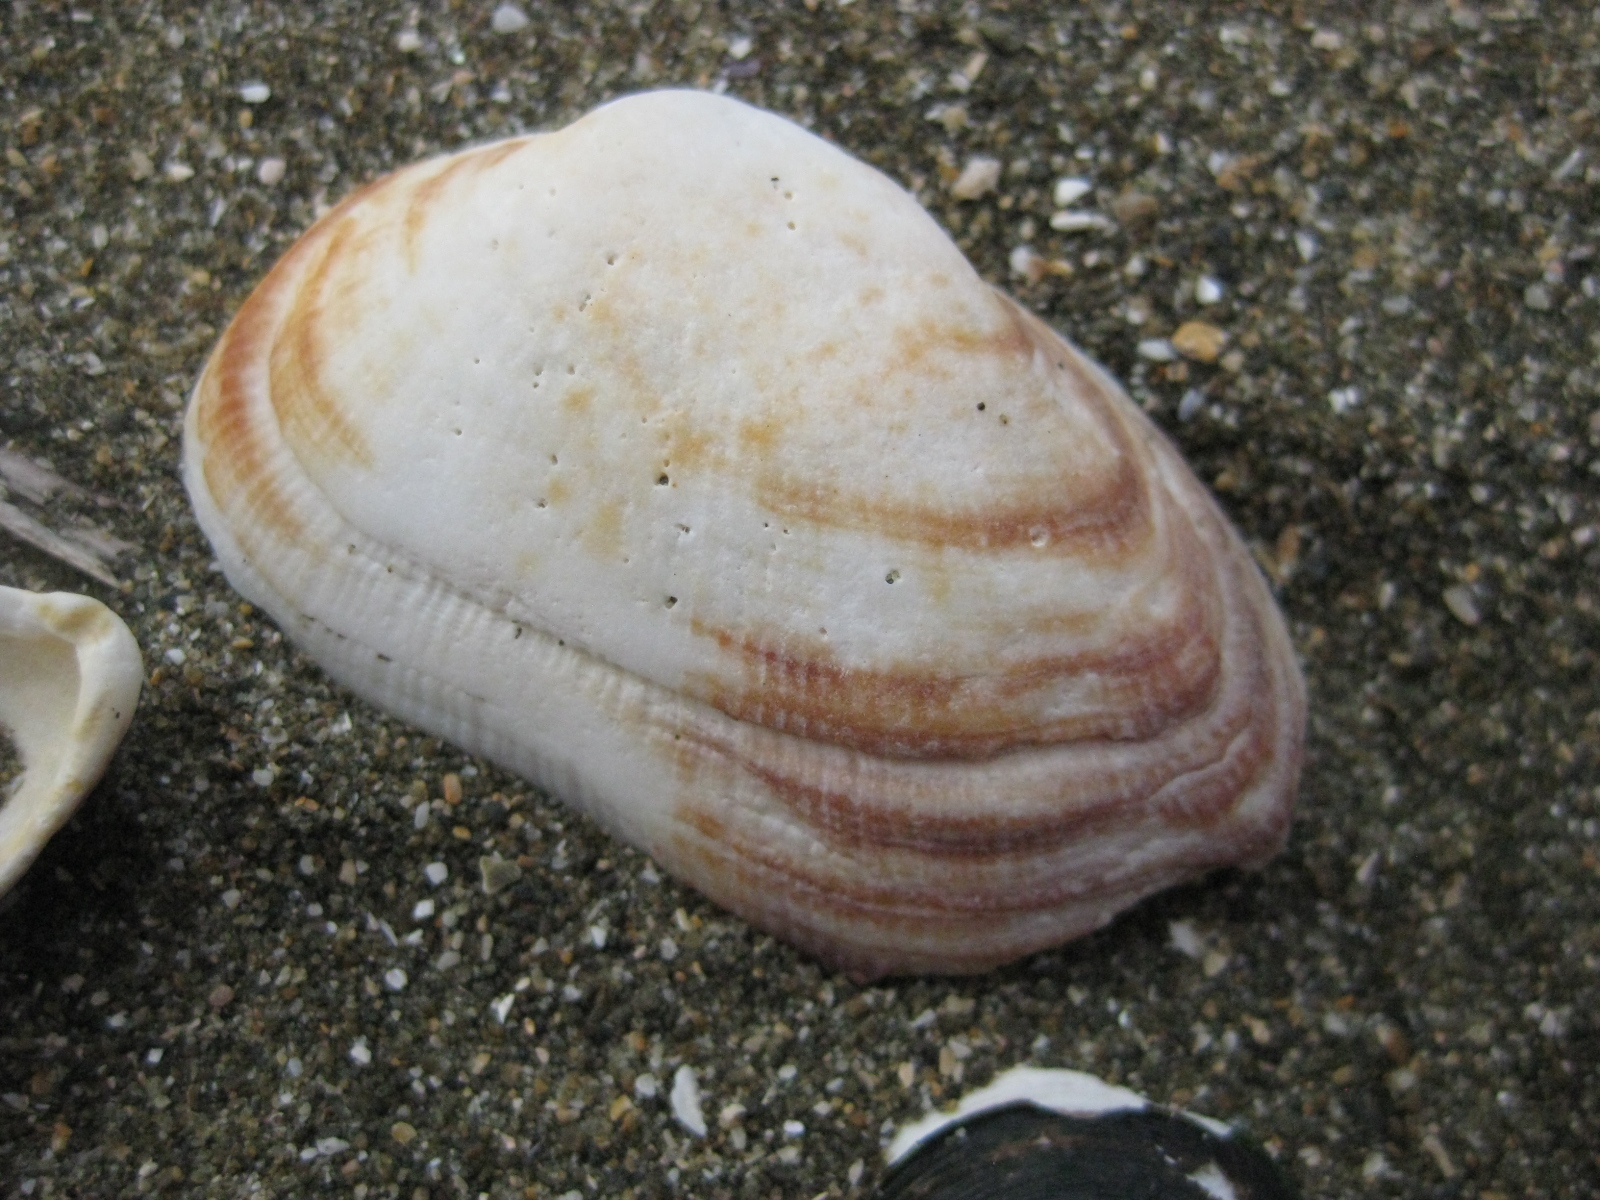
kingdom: Animalia
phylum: Mollusca
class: Bivalvia
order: Arcida
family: Arcidae
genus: Barbatia
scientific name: Barbatia novaezealandiae
